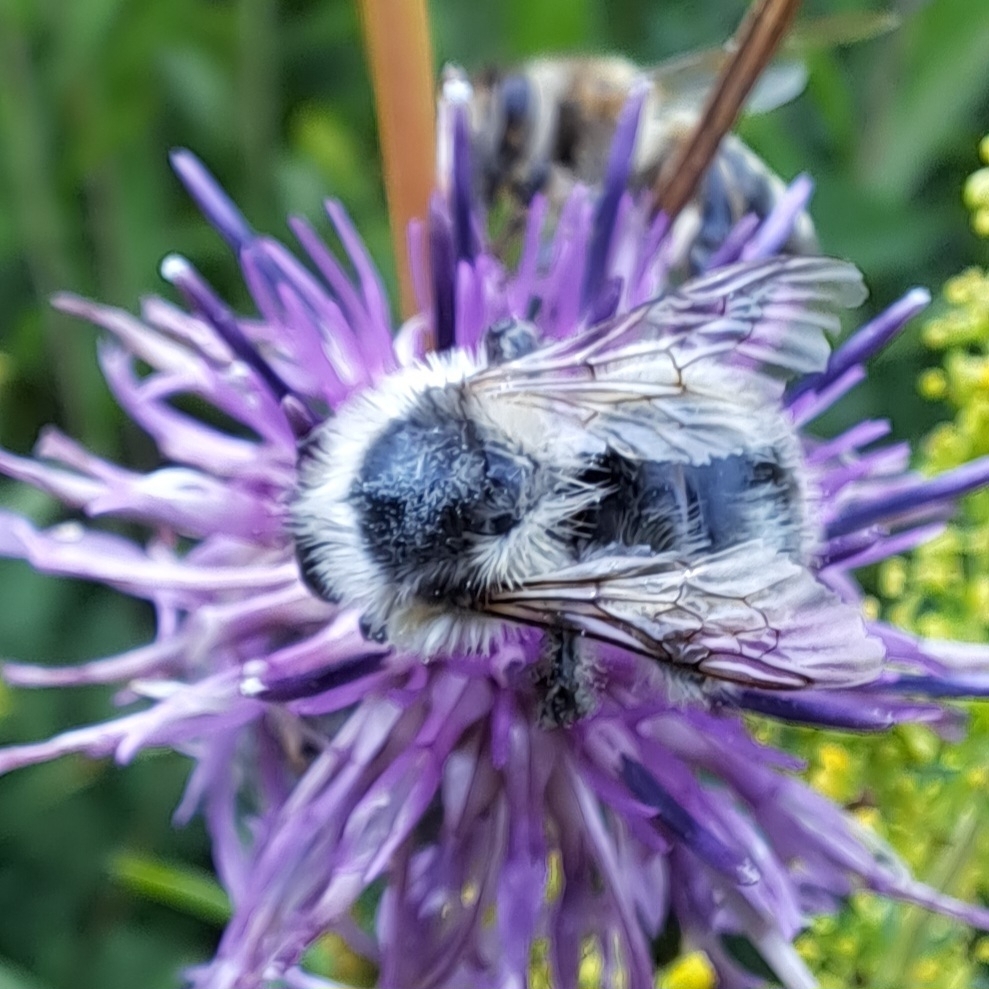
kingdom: Animalia
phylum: Arthropoda
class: Insecta
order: Hymenoptera
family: Apidae
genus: Bombus
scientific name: Bombus sylvarum
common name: Shrill carder bee
